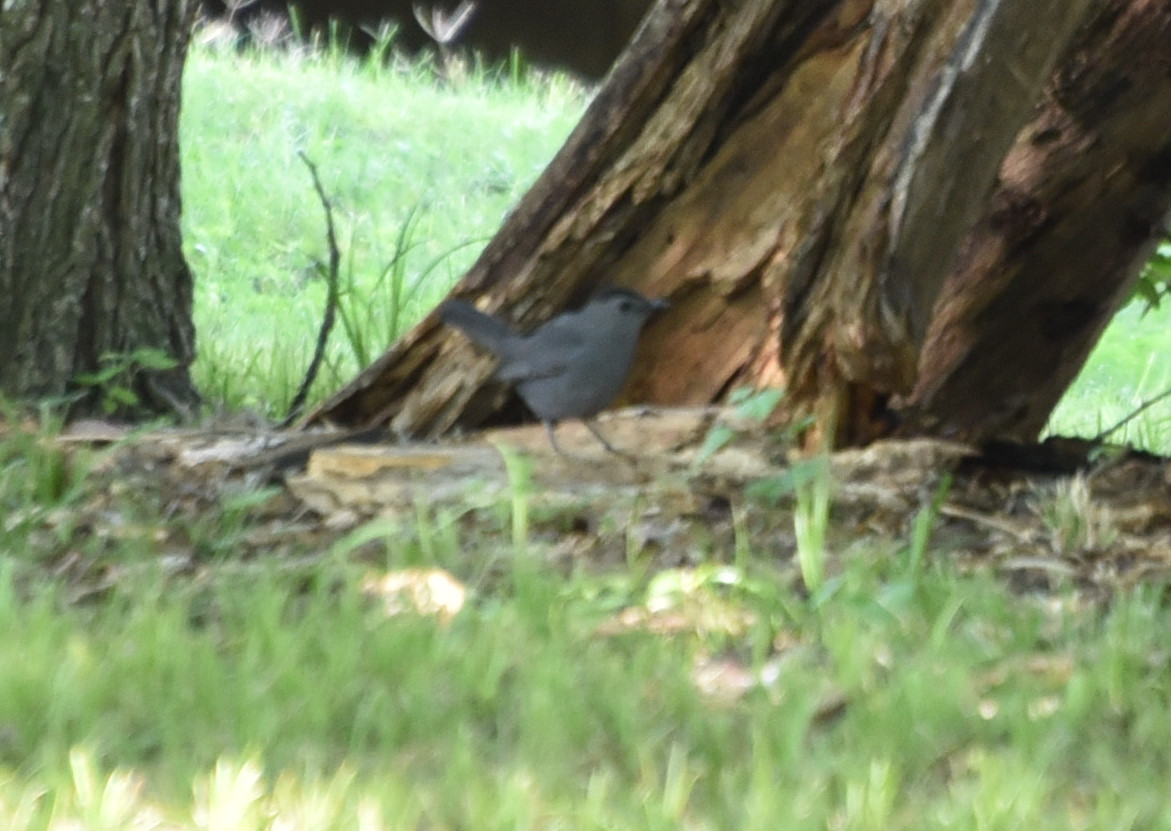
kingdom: Animalia
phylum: Chordata
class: Aves
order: Passeriformes
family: Mimidae
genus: Dumetella
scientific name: Dumetella carolinensis
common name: Gray catbird
